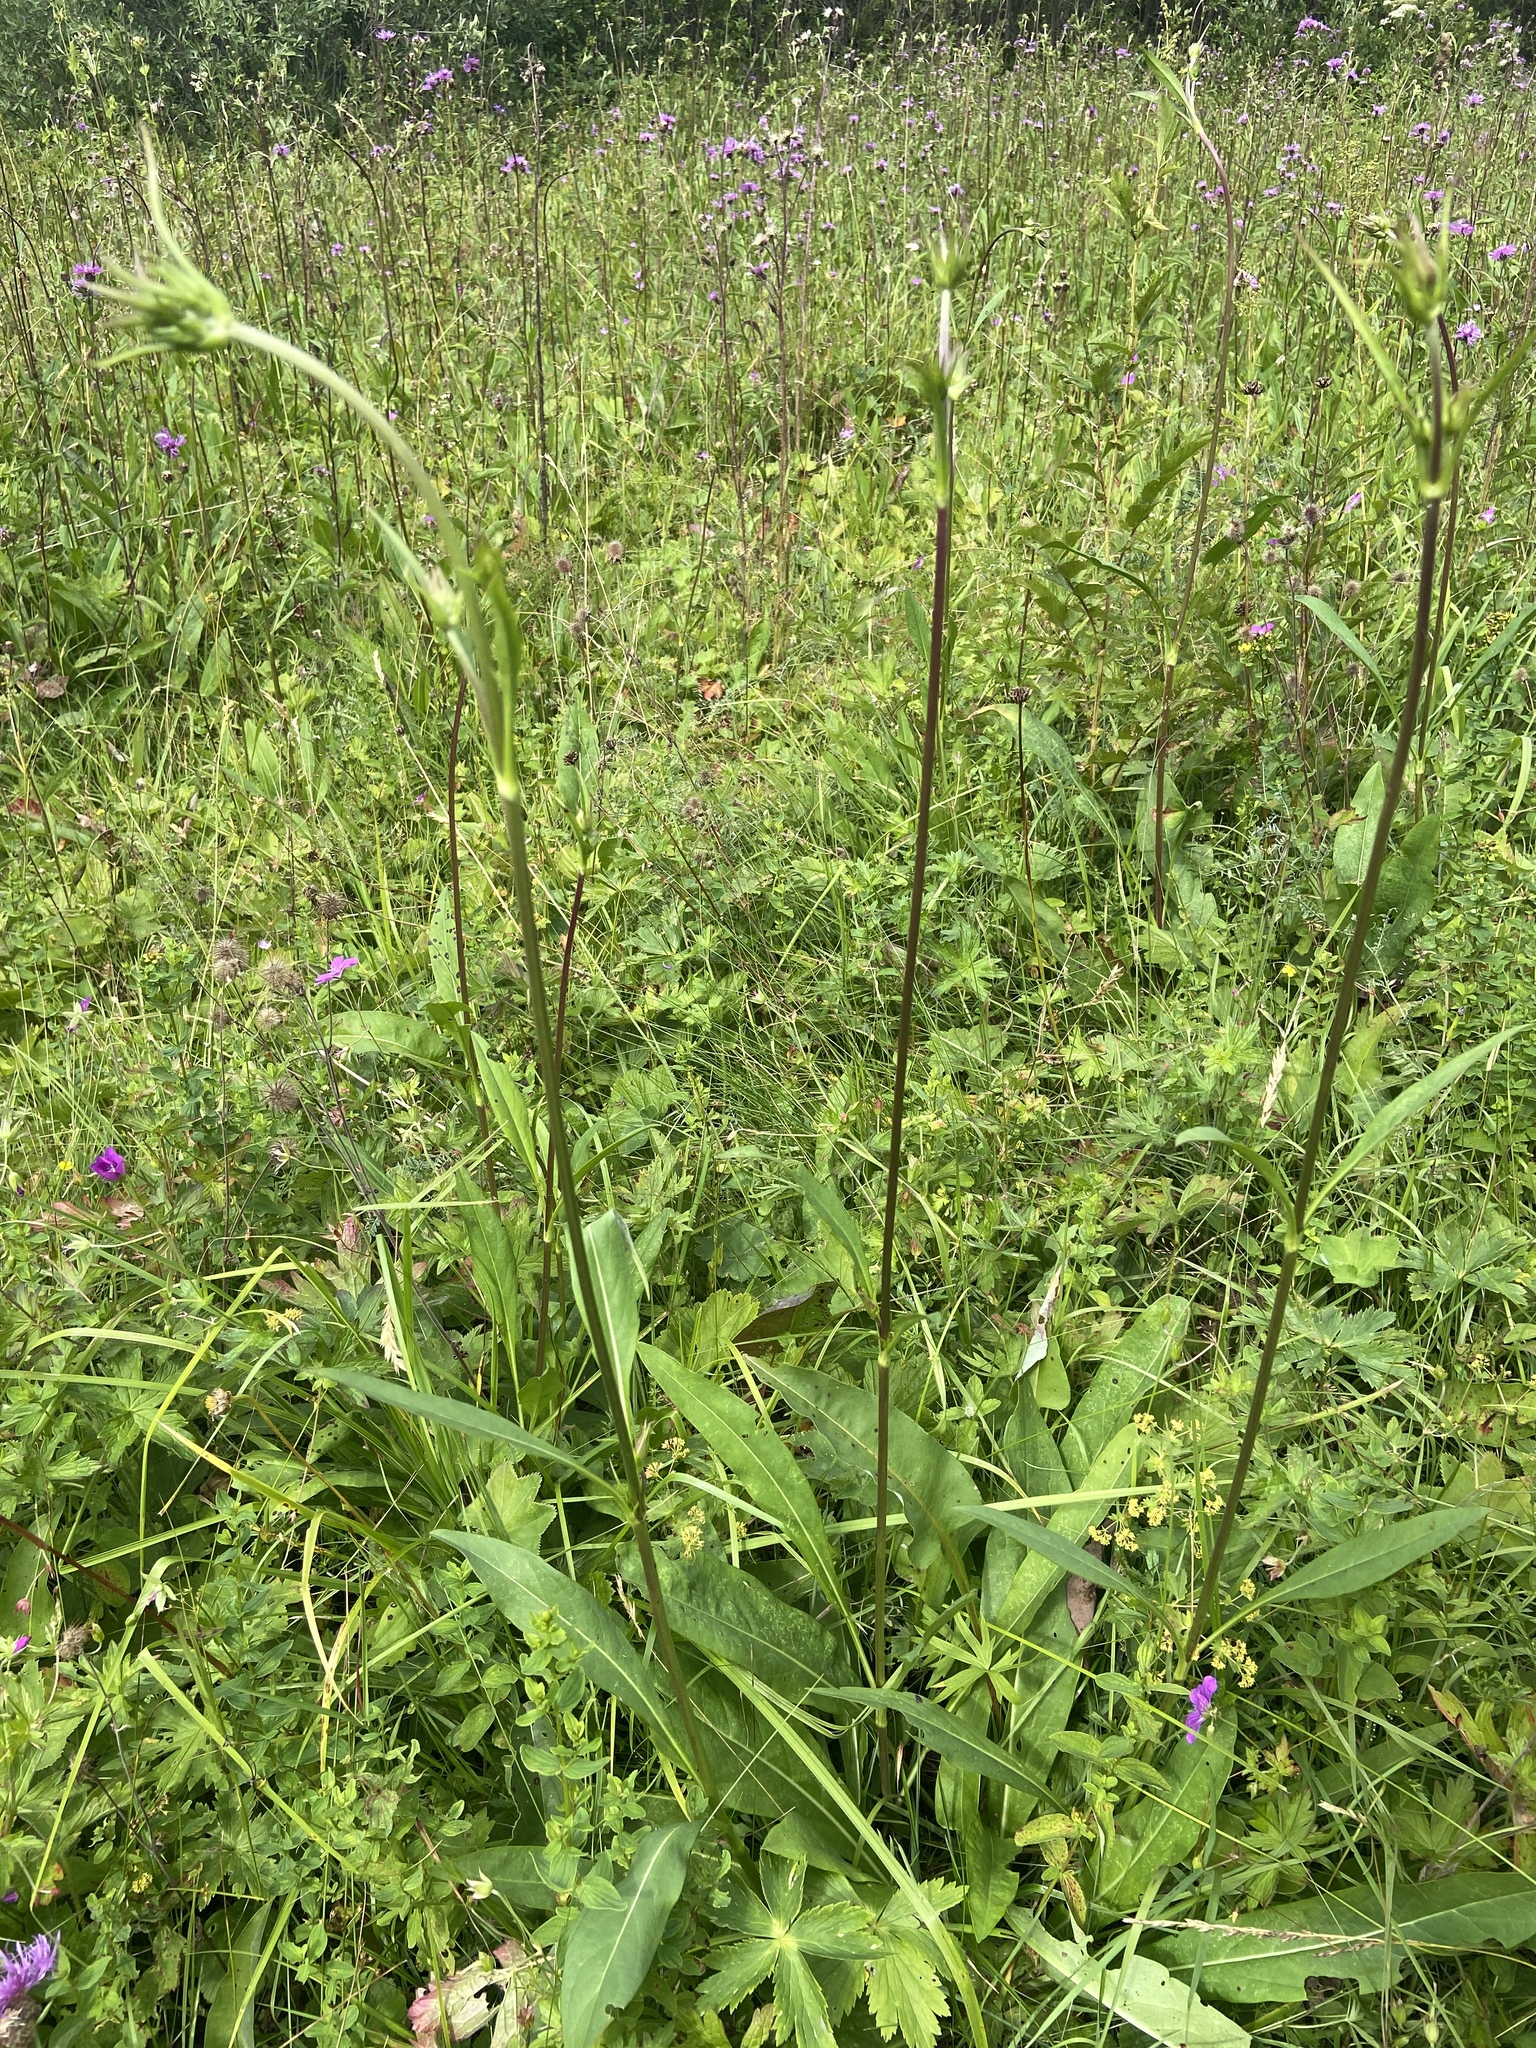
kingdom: Plantae
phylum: Tracheophyta
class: Magnoliopsida
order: Dipsacales
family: Caprifoliaceae
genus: Succisa
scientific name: Succisa pratensis
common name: Devil's-bit
